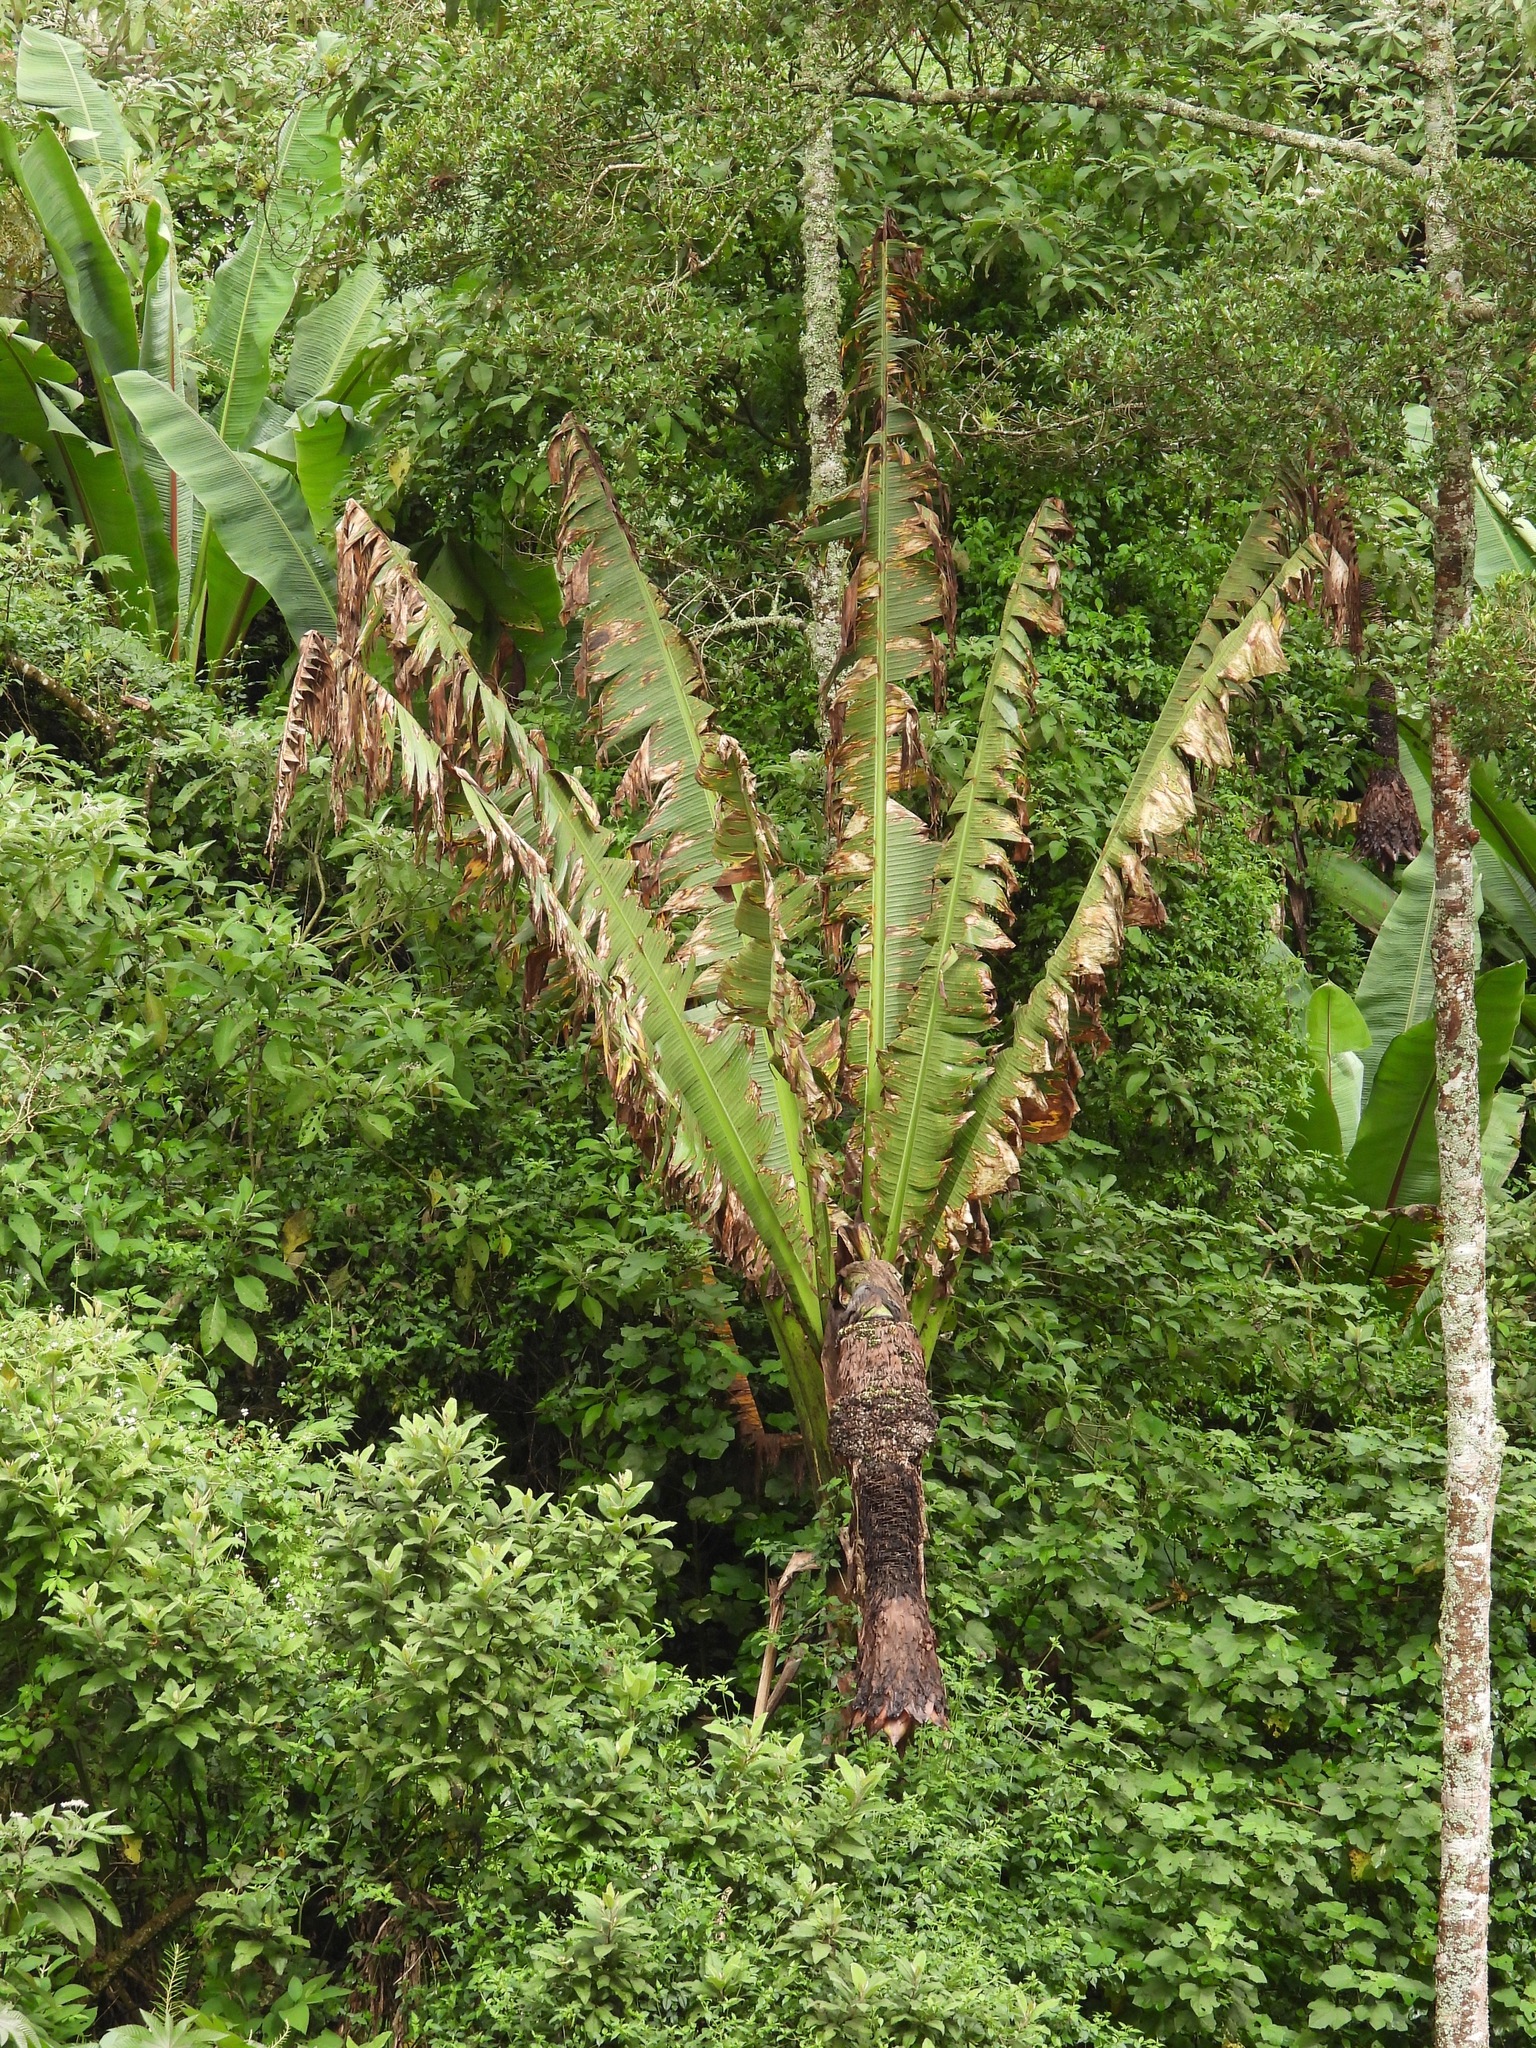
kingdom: Plantae
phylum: Tracheophyta
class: Liliopsida
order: Zingiberales
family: Musaceae
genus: Ensete
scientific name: Ensete ventricosum
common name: Abyssinian banana
